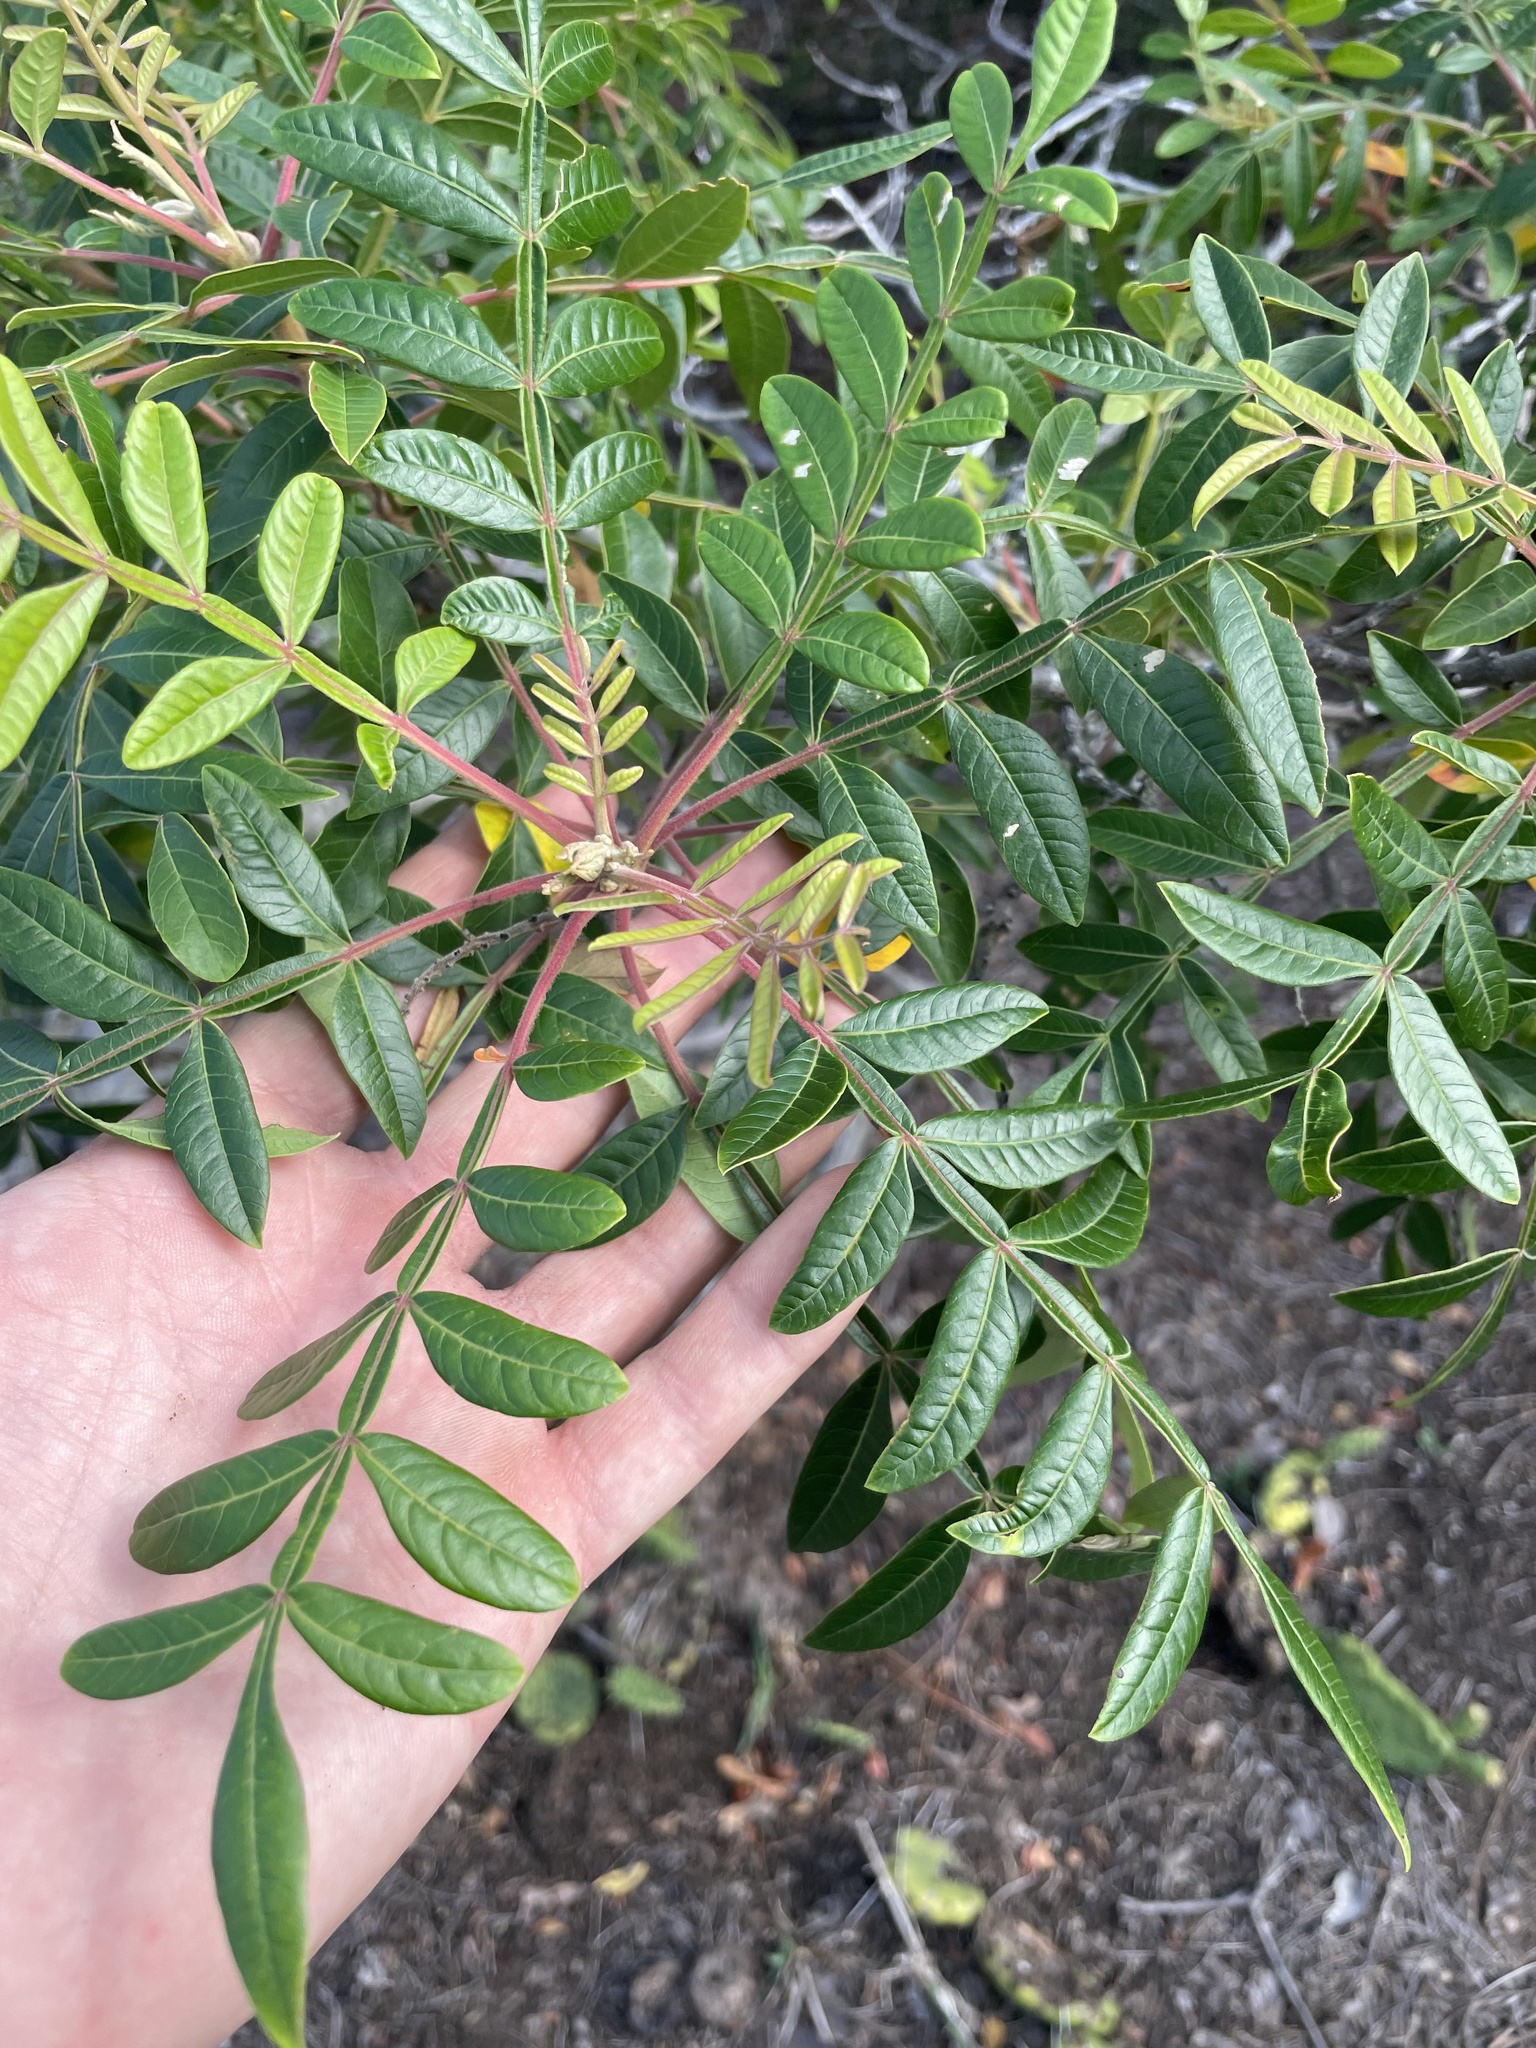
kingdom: Plantae
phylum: Tracheophyta
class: Magnoliopsida
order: Sapindales
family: Anacardiaceae
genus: Rhus
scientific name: Rhus copallina
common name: Shining sumac
